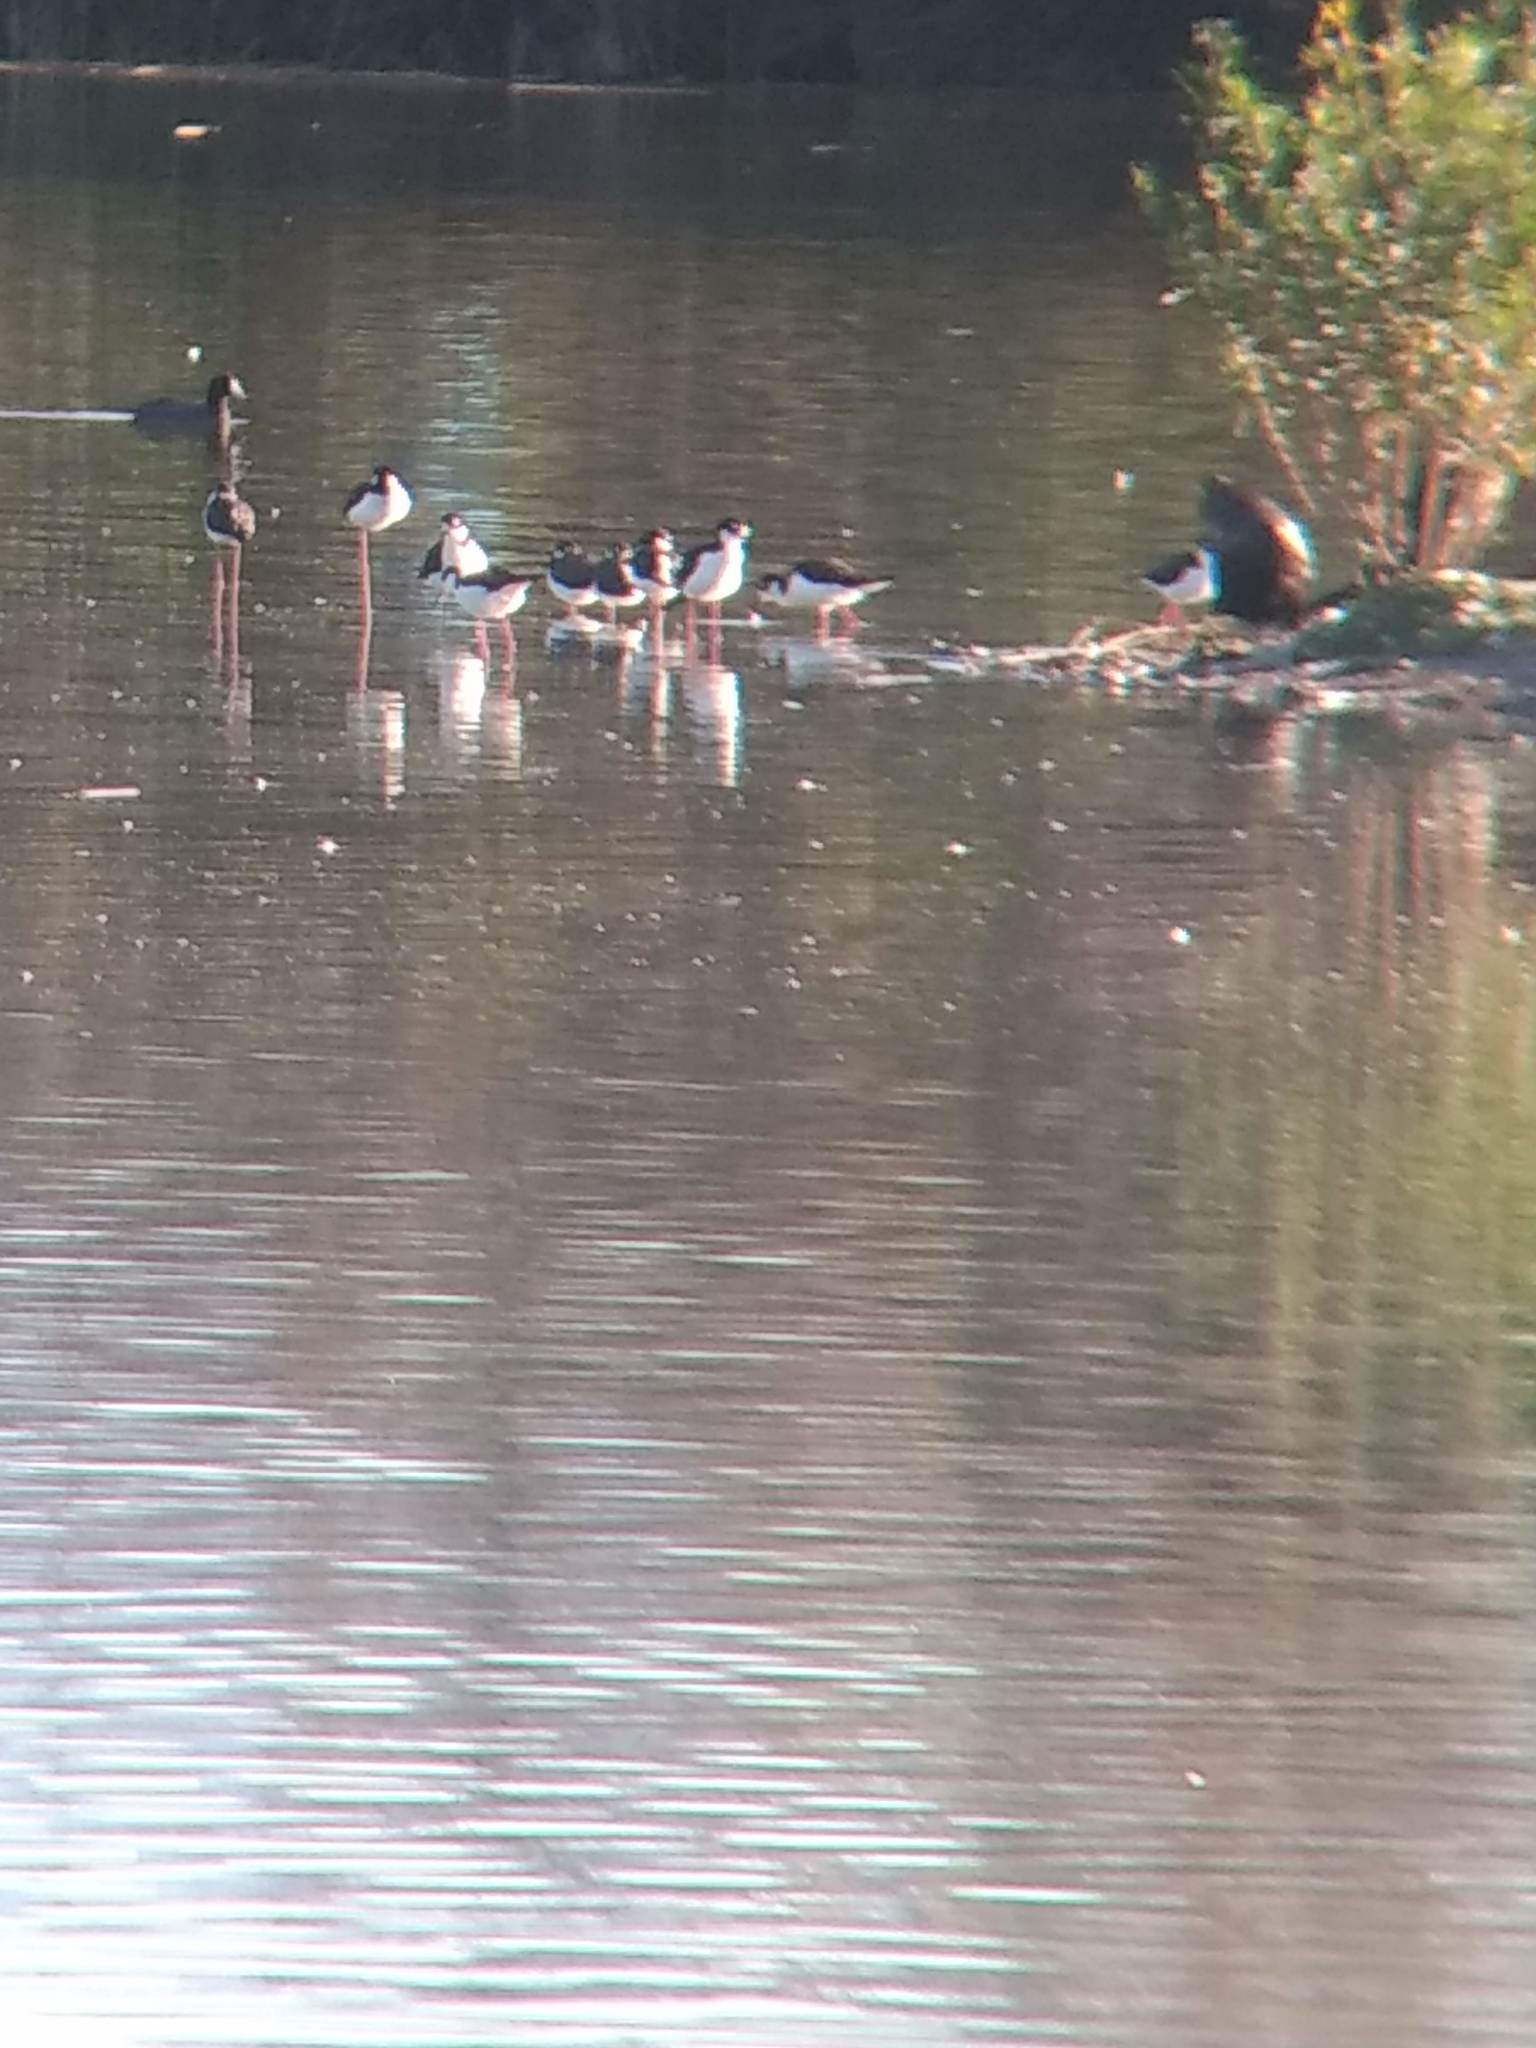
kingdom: Animalia
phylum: Chordata
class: Aves
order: Charadriiformes
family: Recurvirostridae
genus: Himantopus
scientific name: Himantopus mexicanus
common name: Black-necked stilt
